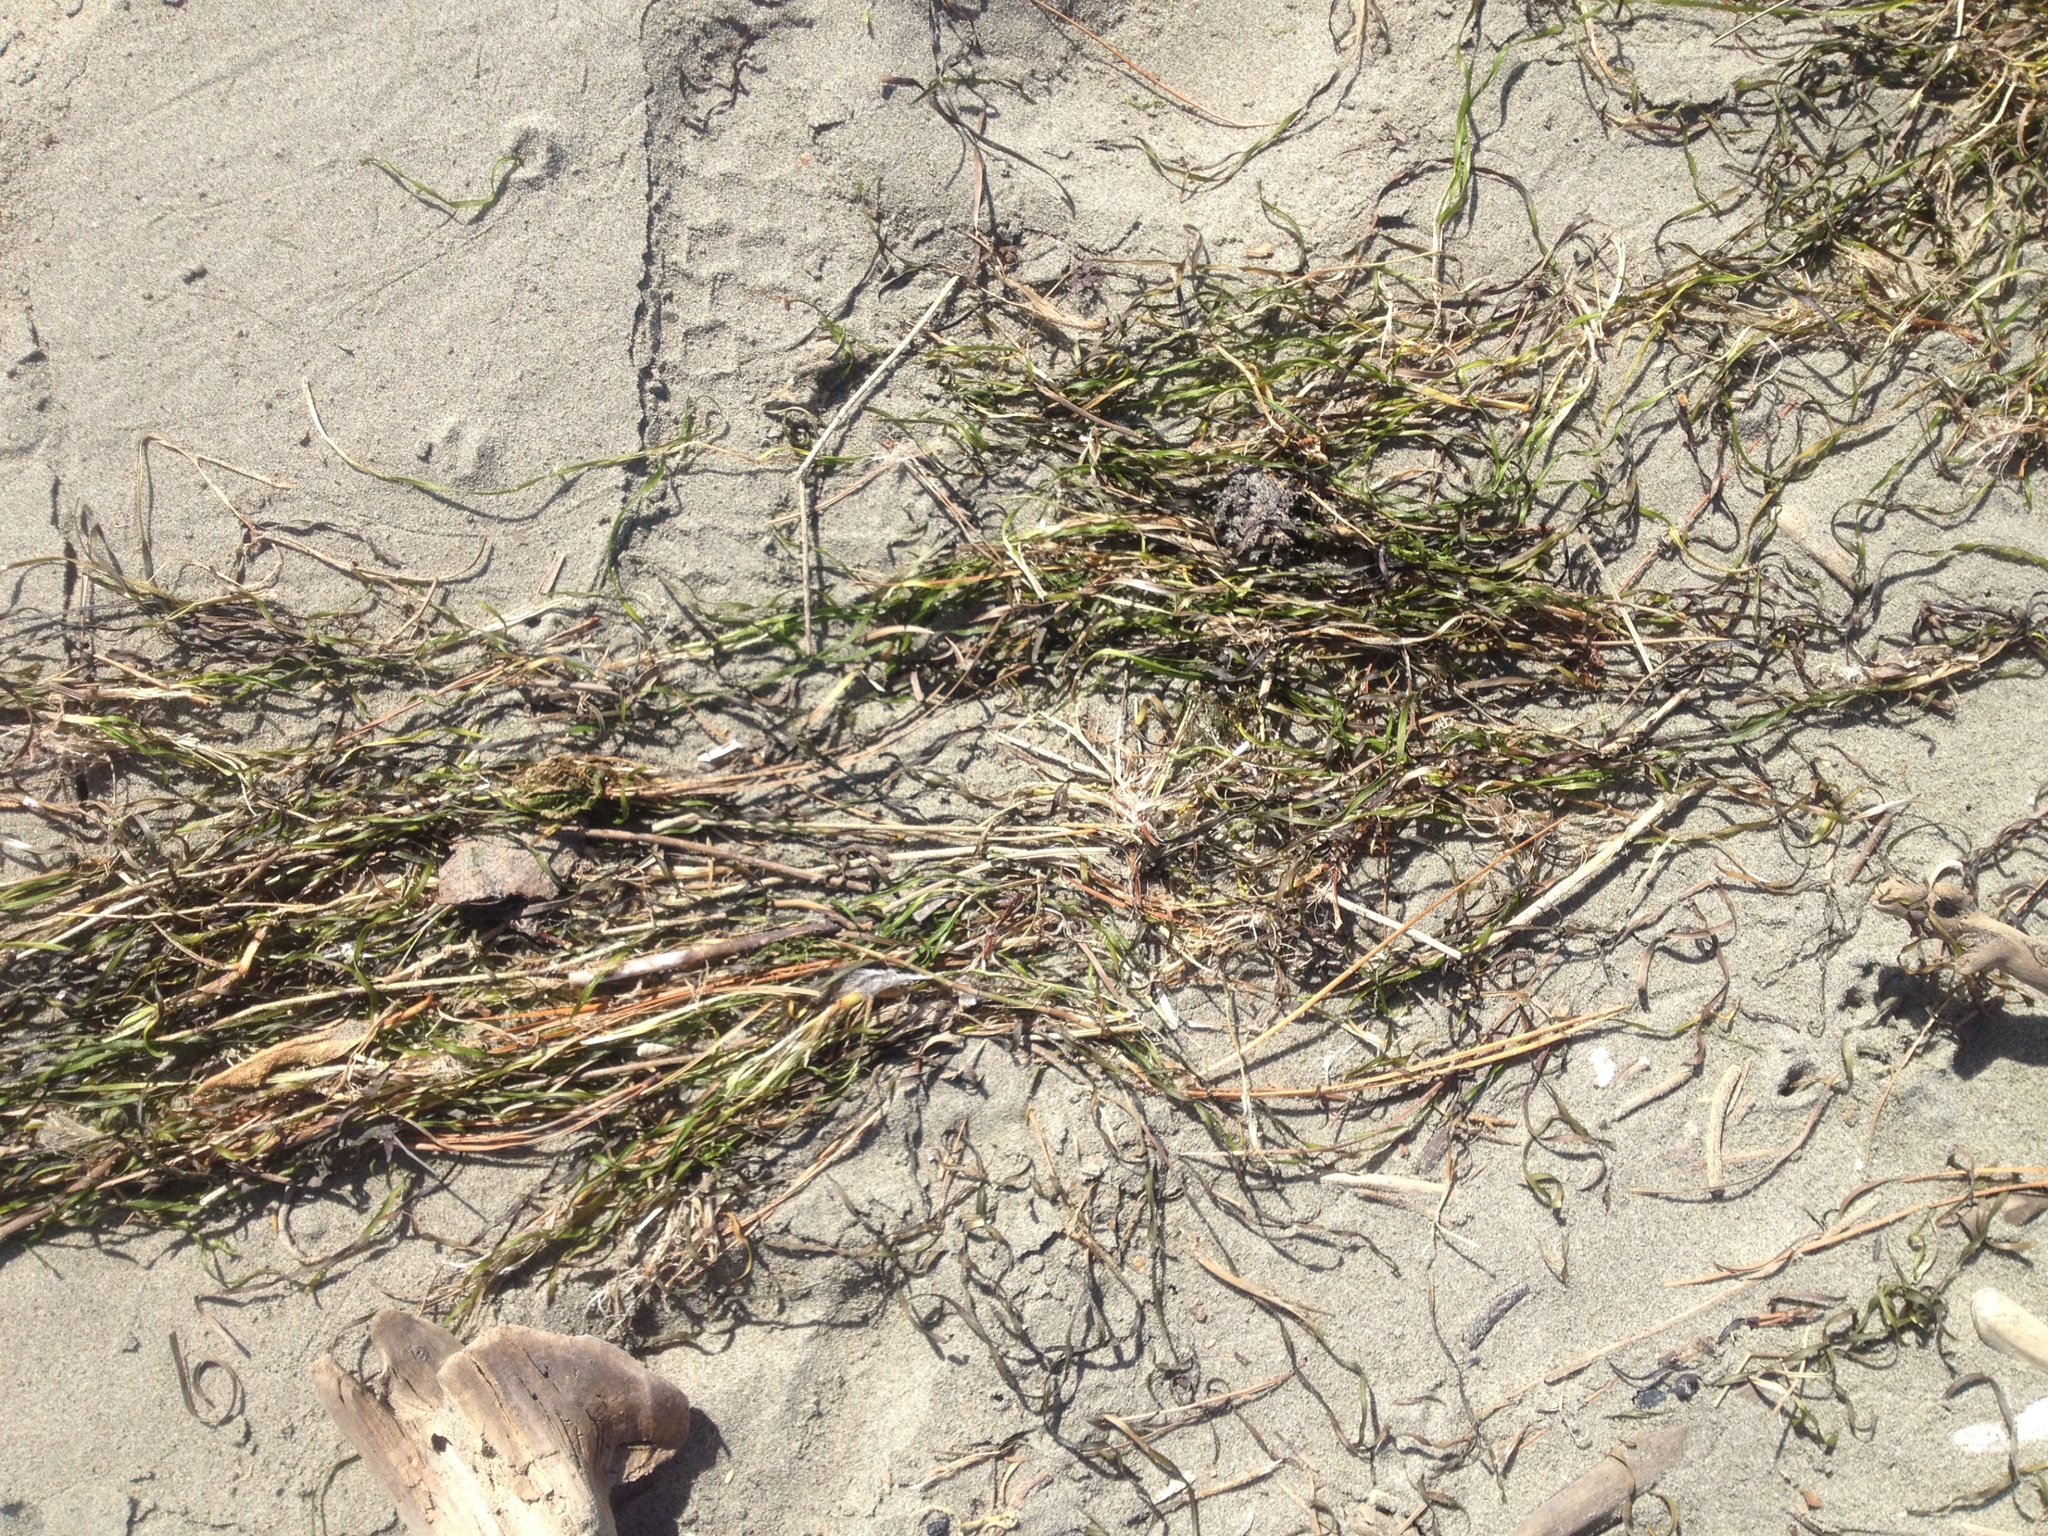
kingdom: Plantae
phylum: Tracheophyta
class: Liliopsida
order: Alismatales
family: Zosteraceae
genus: Zostera
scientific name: Zostera novazelandica
